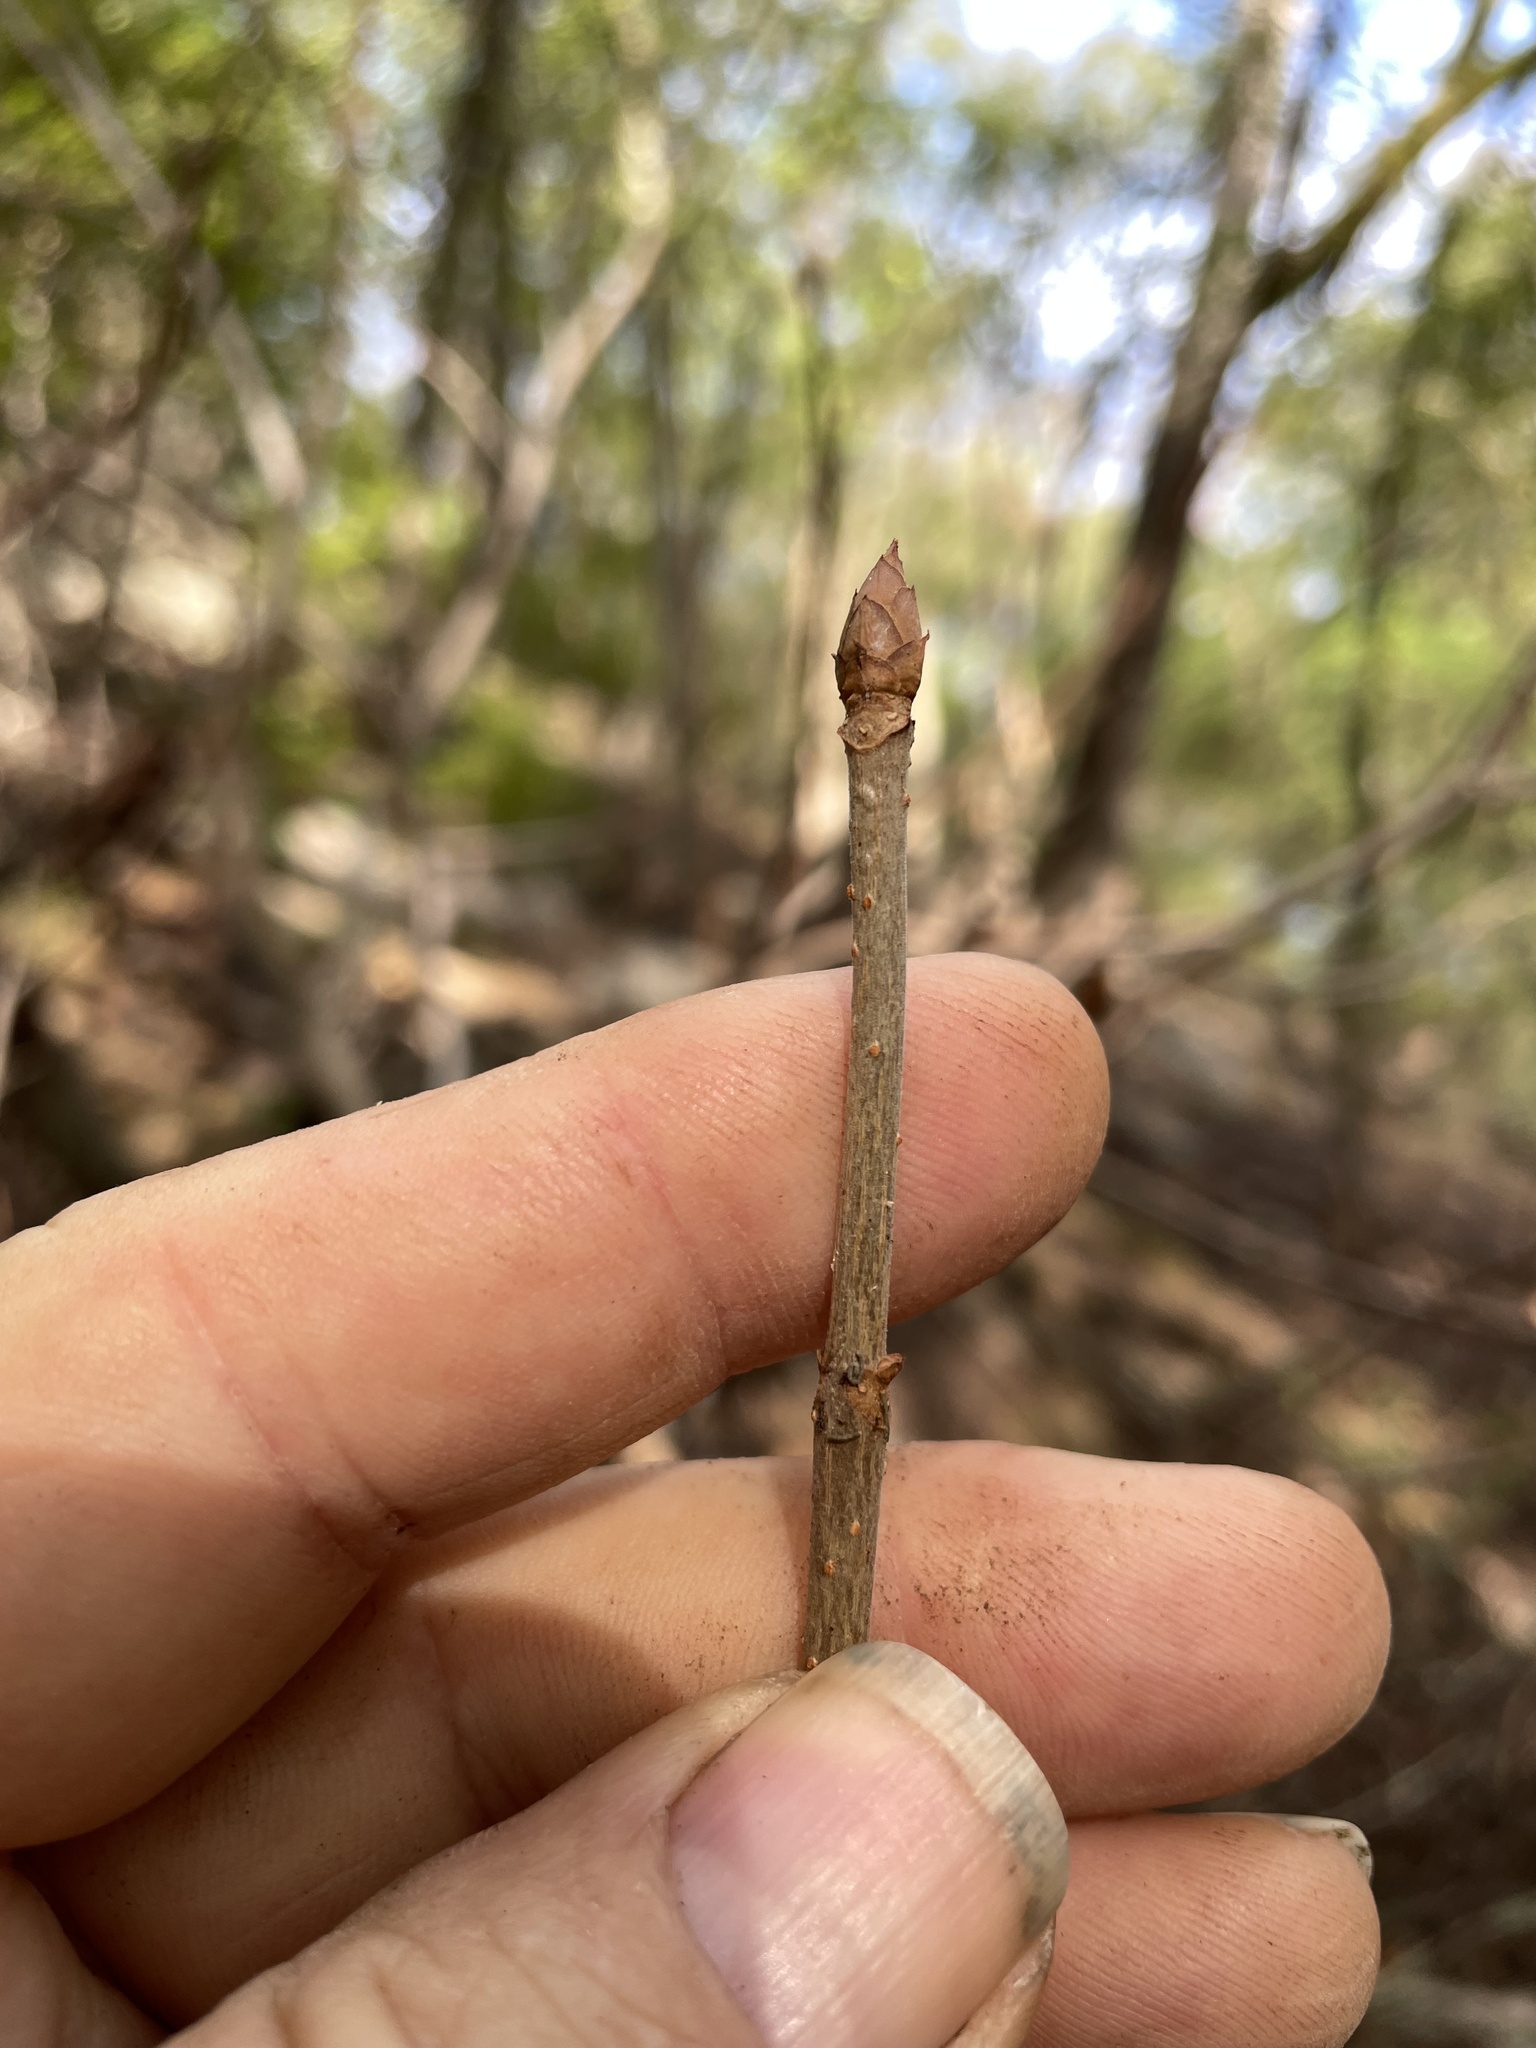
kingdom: Plantae
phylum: Tracheophyta
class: Magnoliopsida
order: Sapindales
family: Sapindaceae
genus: Aesculus
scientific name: Aesculus glabra
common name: Ohio buckeye
